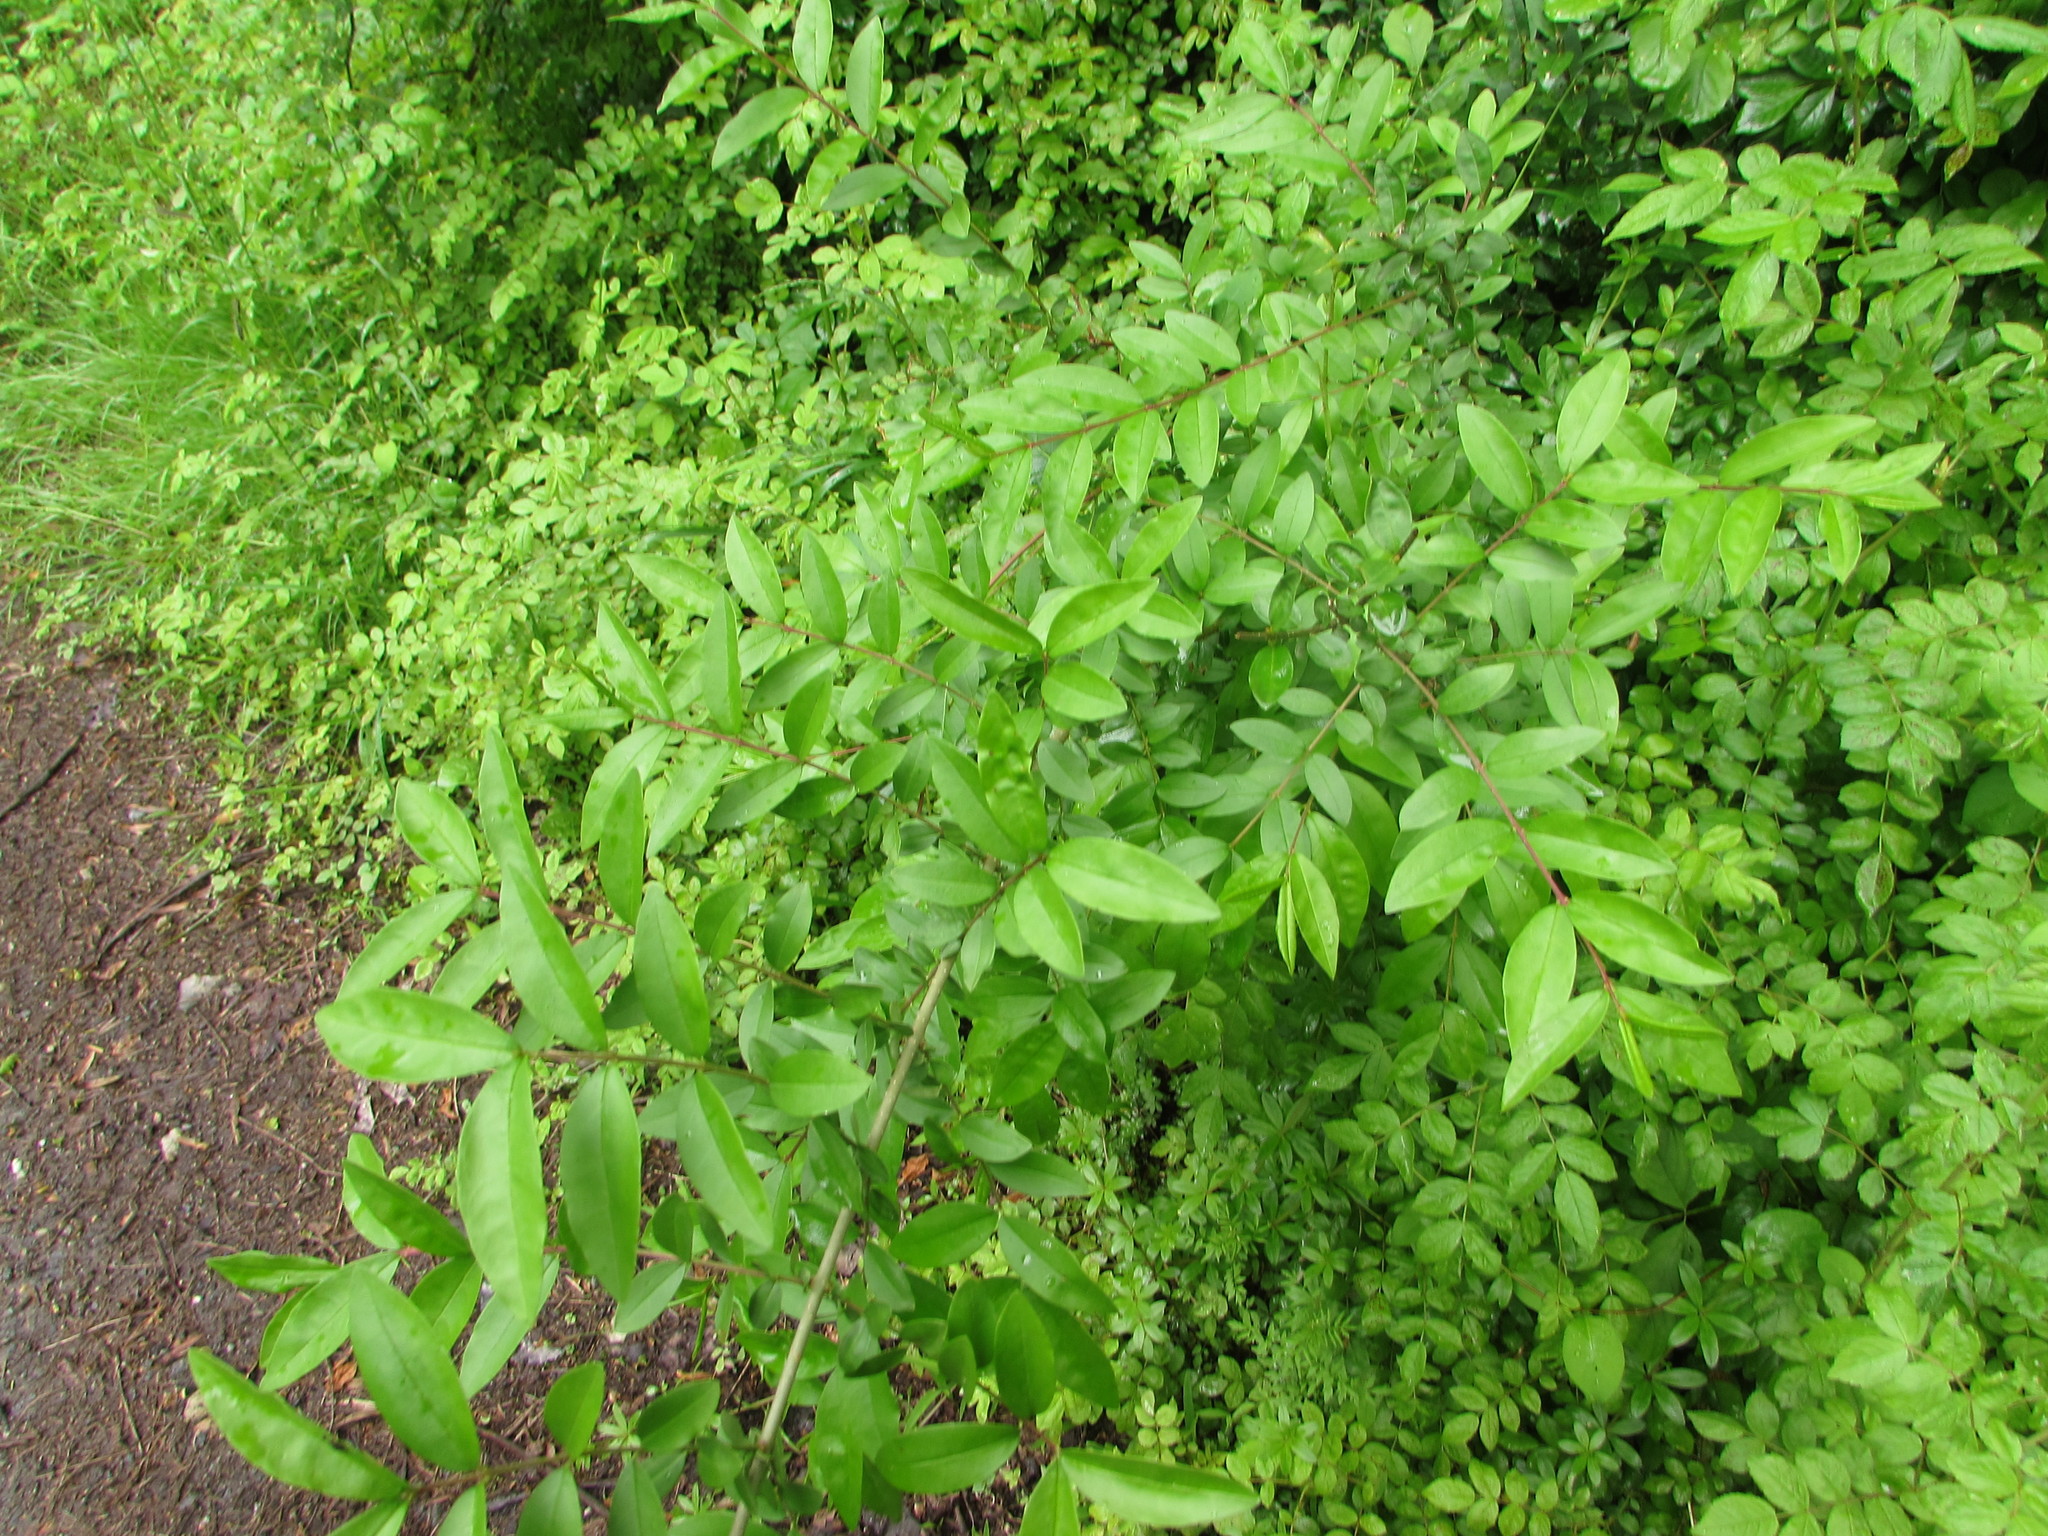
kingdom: Plantae
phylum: Tracheophyta
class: Magnoliopsida
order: Lamiales
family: Oleaceae
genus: Ligustrum
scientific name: Ligustrum obtusifolium
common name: Border privet
